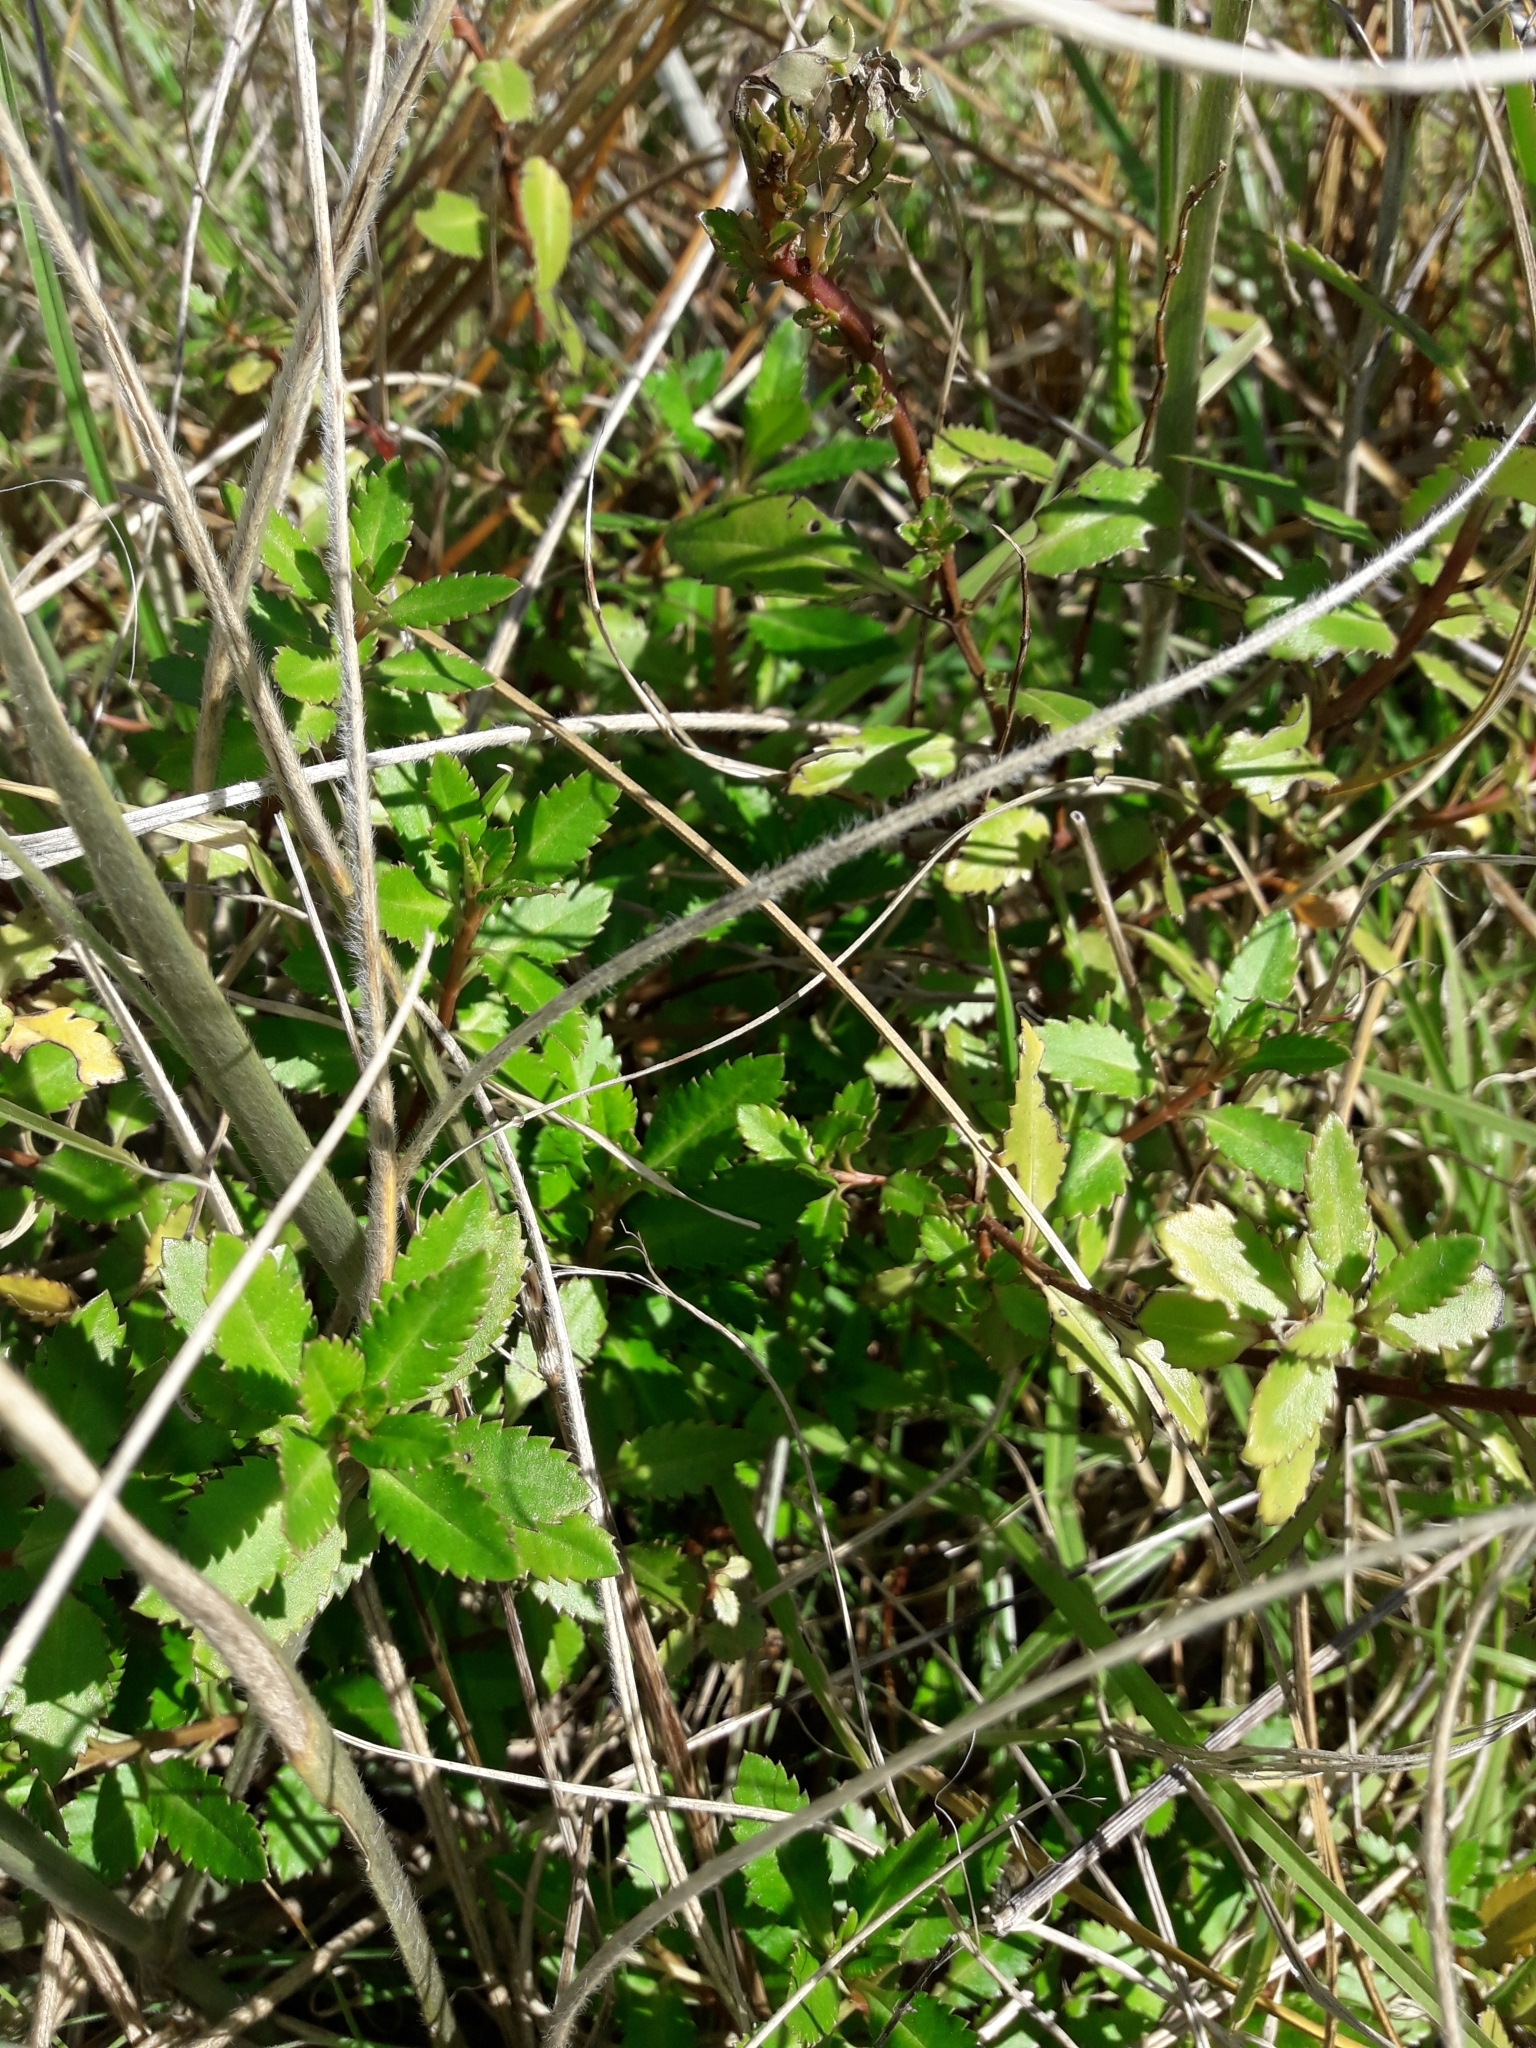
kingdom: Plantae
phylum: Tracheophyta
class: Magnoliopsida
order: Saxifragales
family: Haloragaceae
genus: Haloragis
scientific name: Haloragis erecta
